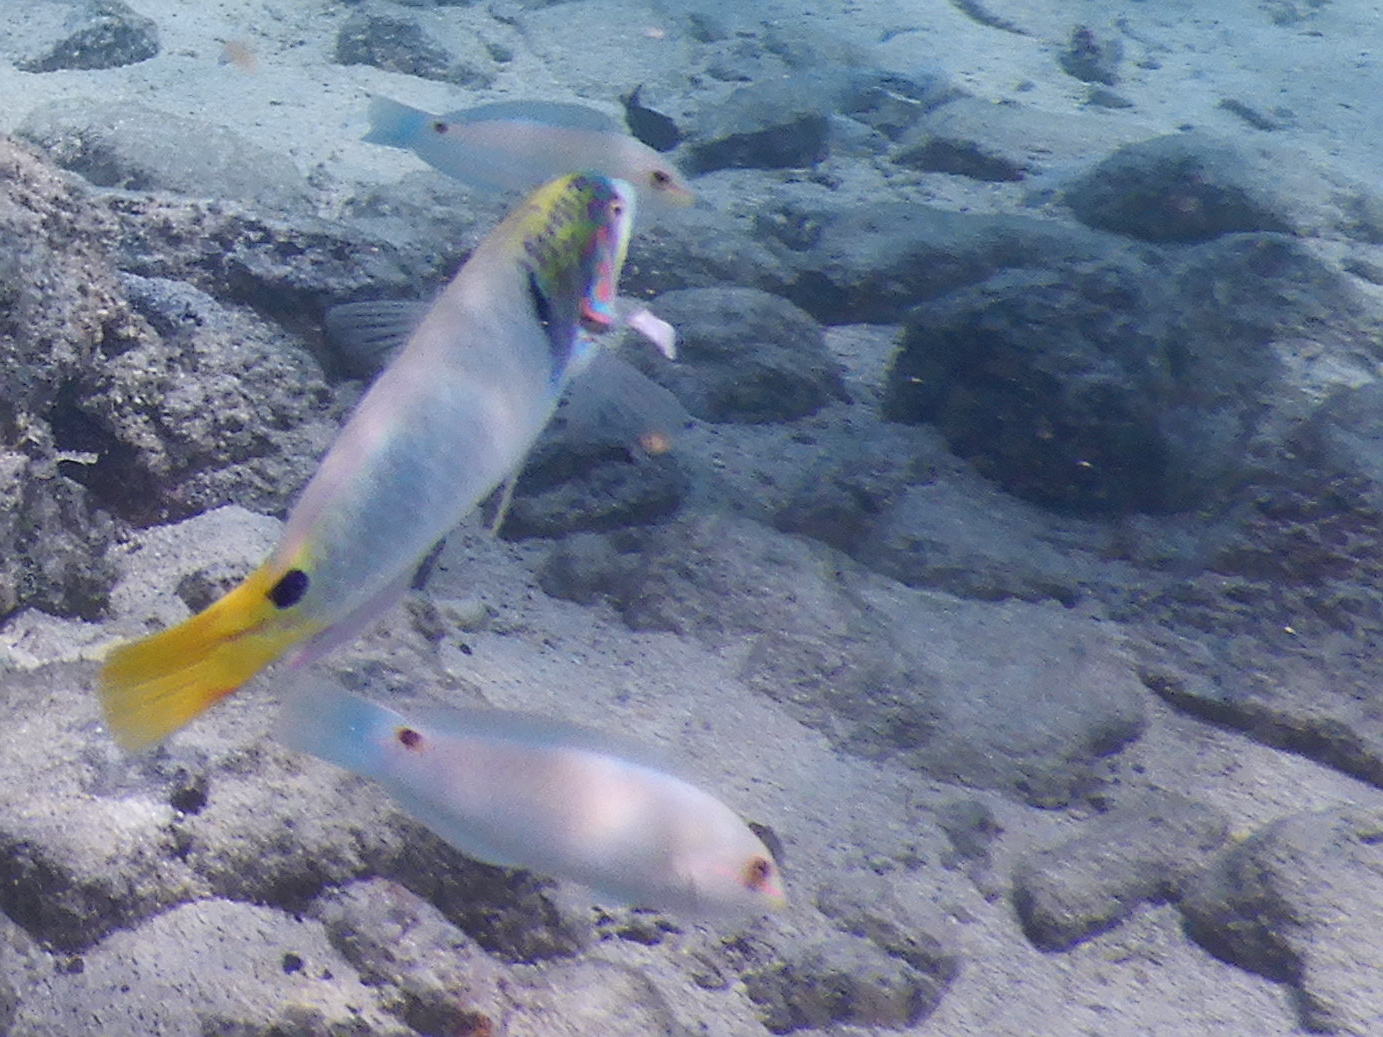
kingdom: Animalia
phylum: Chordata
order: Perciformes
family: Labridae
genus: Halichoeres
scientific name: Halichoeres trimaculatus
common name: Three-spot wrasse
